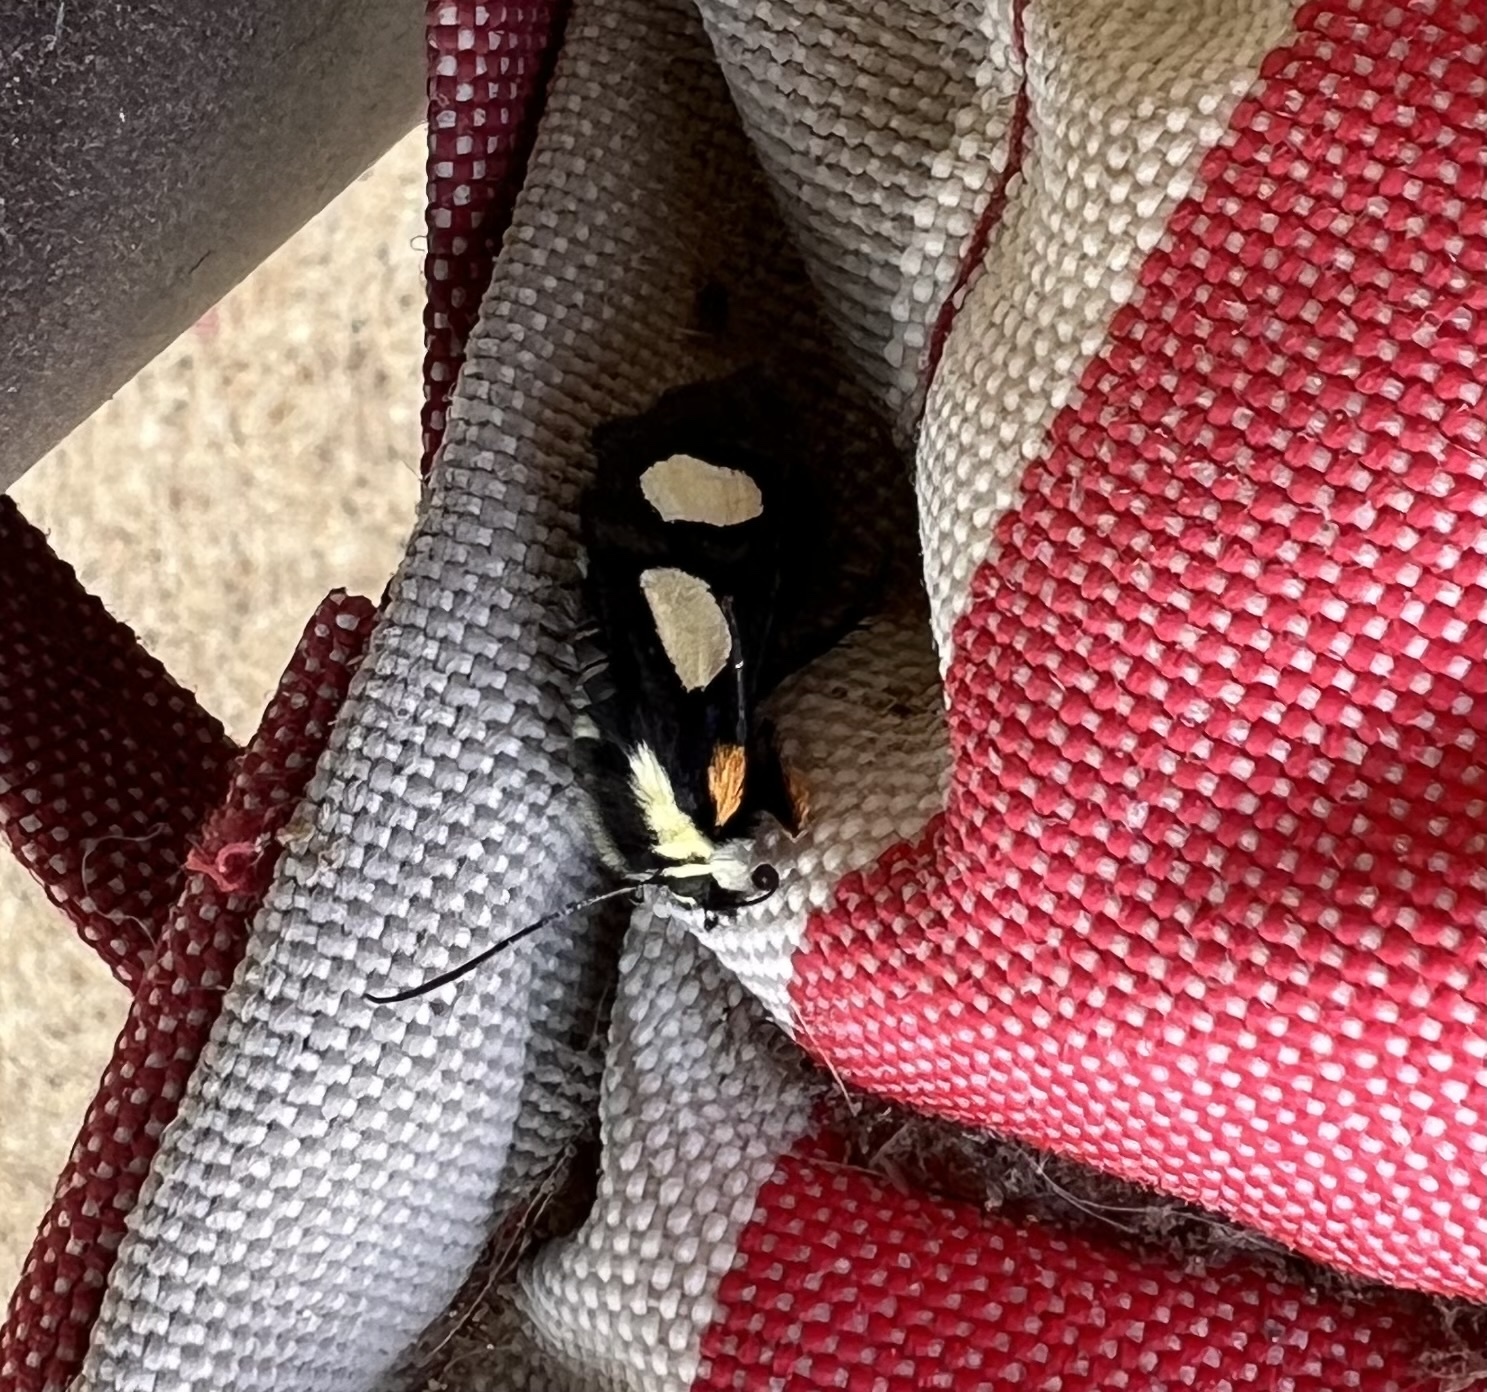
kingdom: Animalia
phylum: Arthropoda
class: Insecta
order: Lepidoptera
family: Noctuidae
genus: Alypia
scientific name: Alypia octomaculata
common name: Eight-spotted forester
